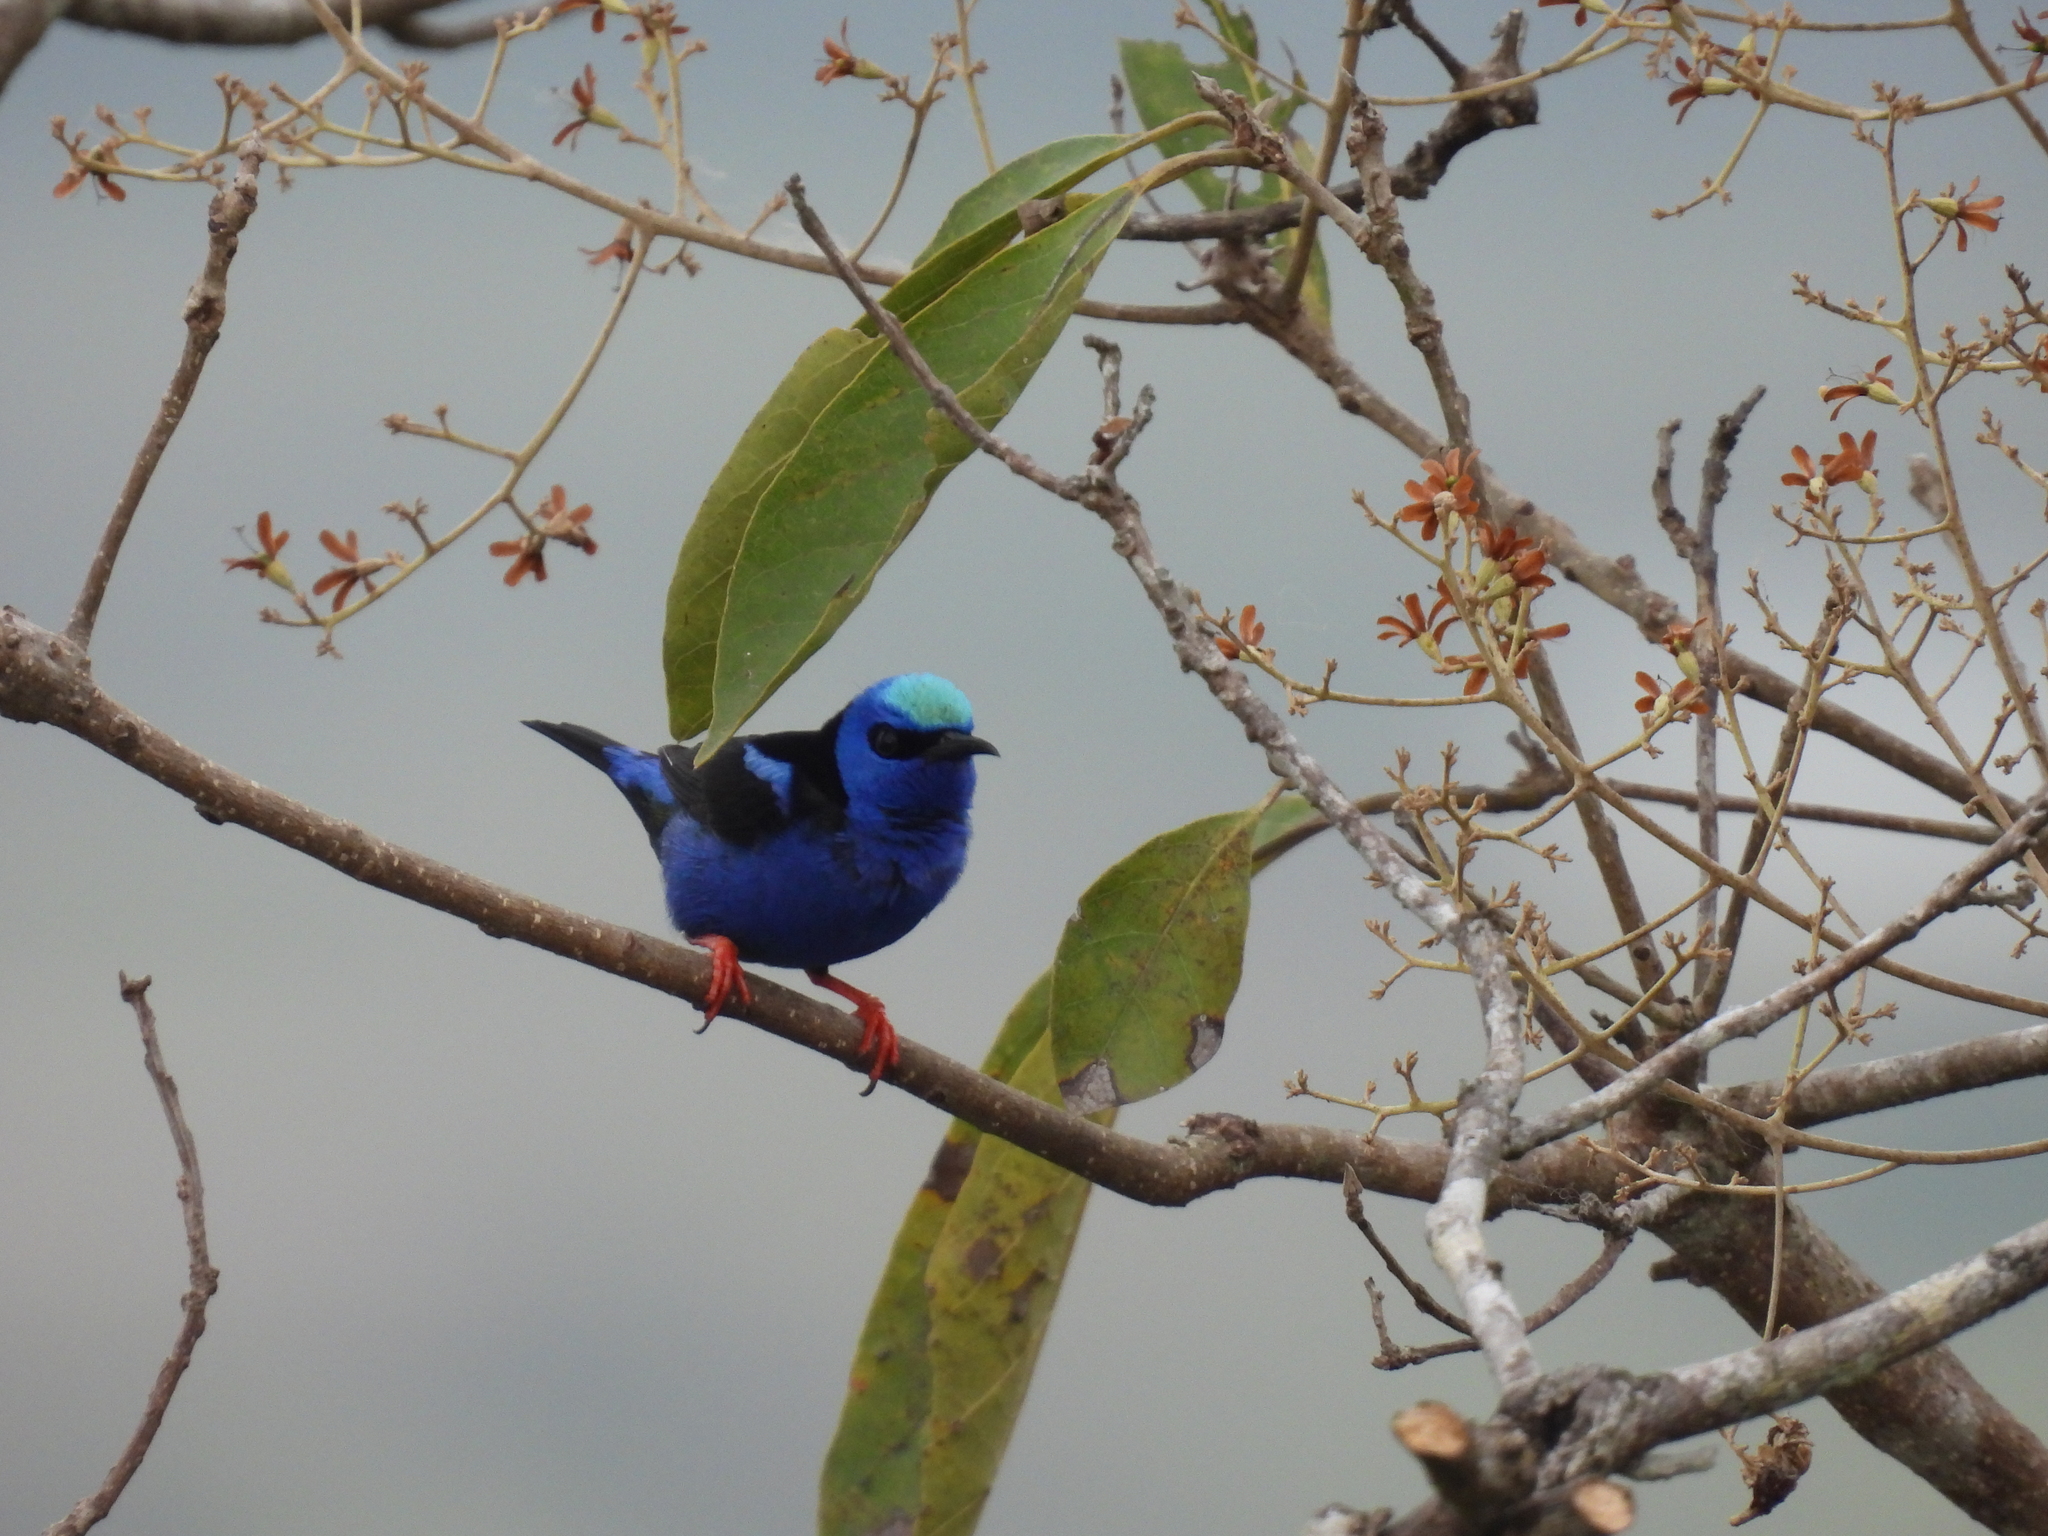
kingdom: Animalia
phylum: Chordata
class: Aves
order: Passeriformes
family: Thraupidae
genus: Cyanerpes
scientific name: Cyanerpes cyaneus
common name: Red-legged honeycreeper
